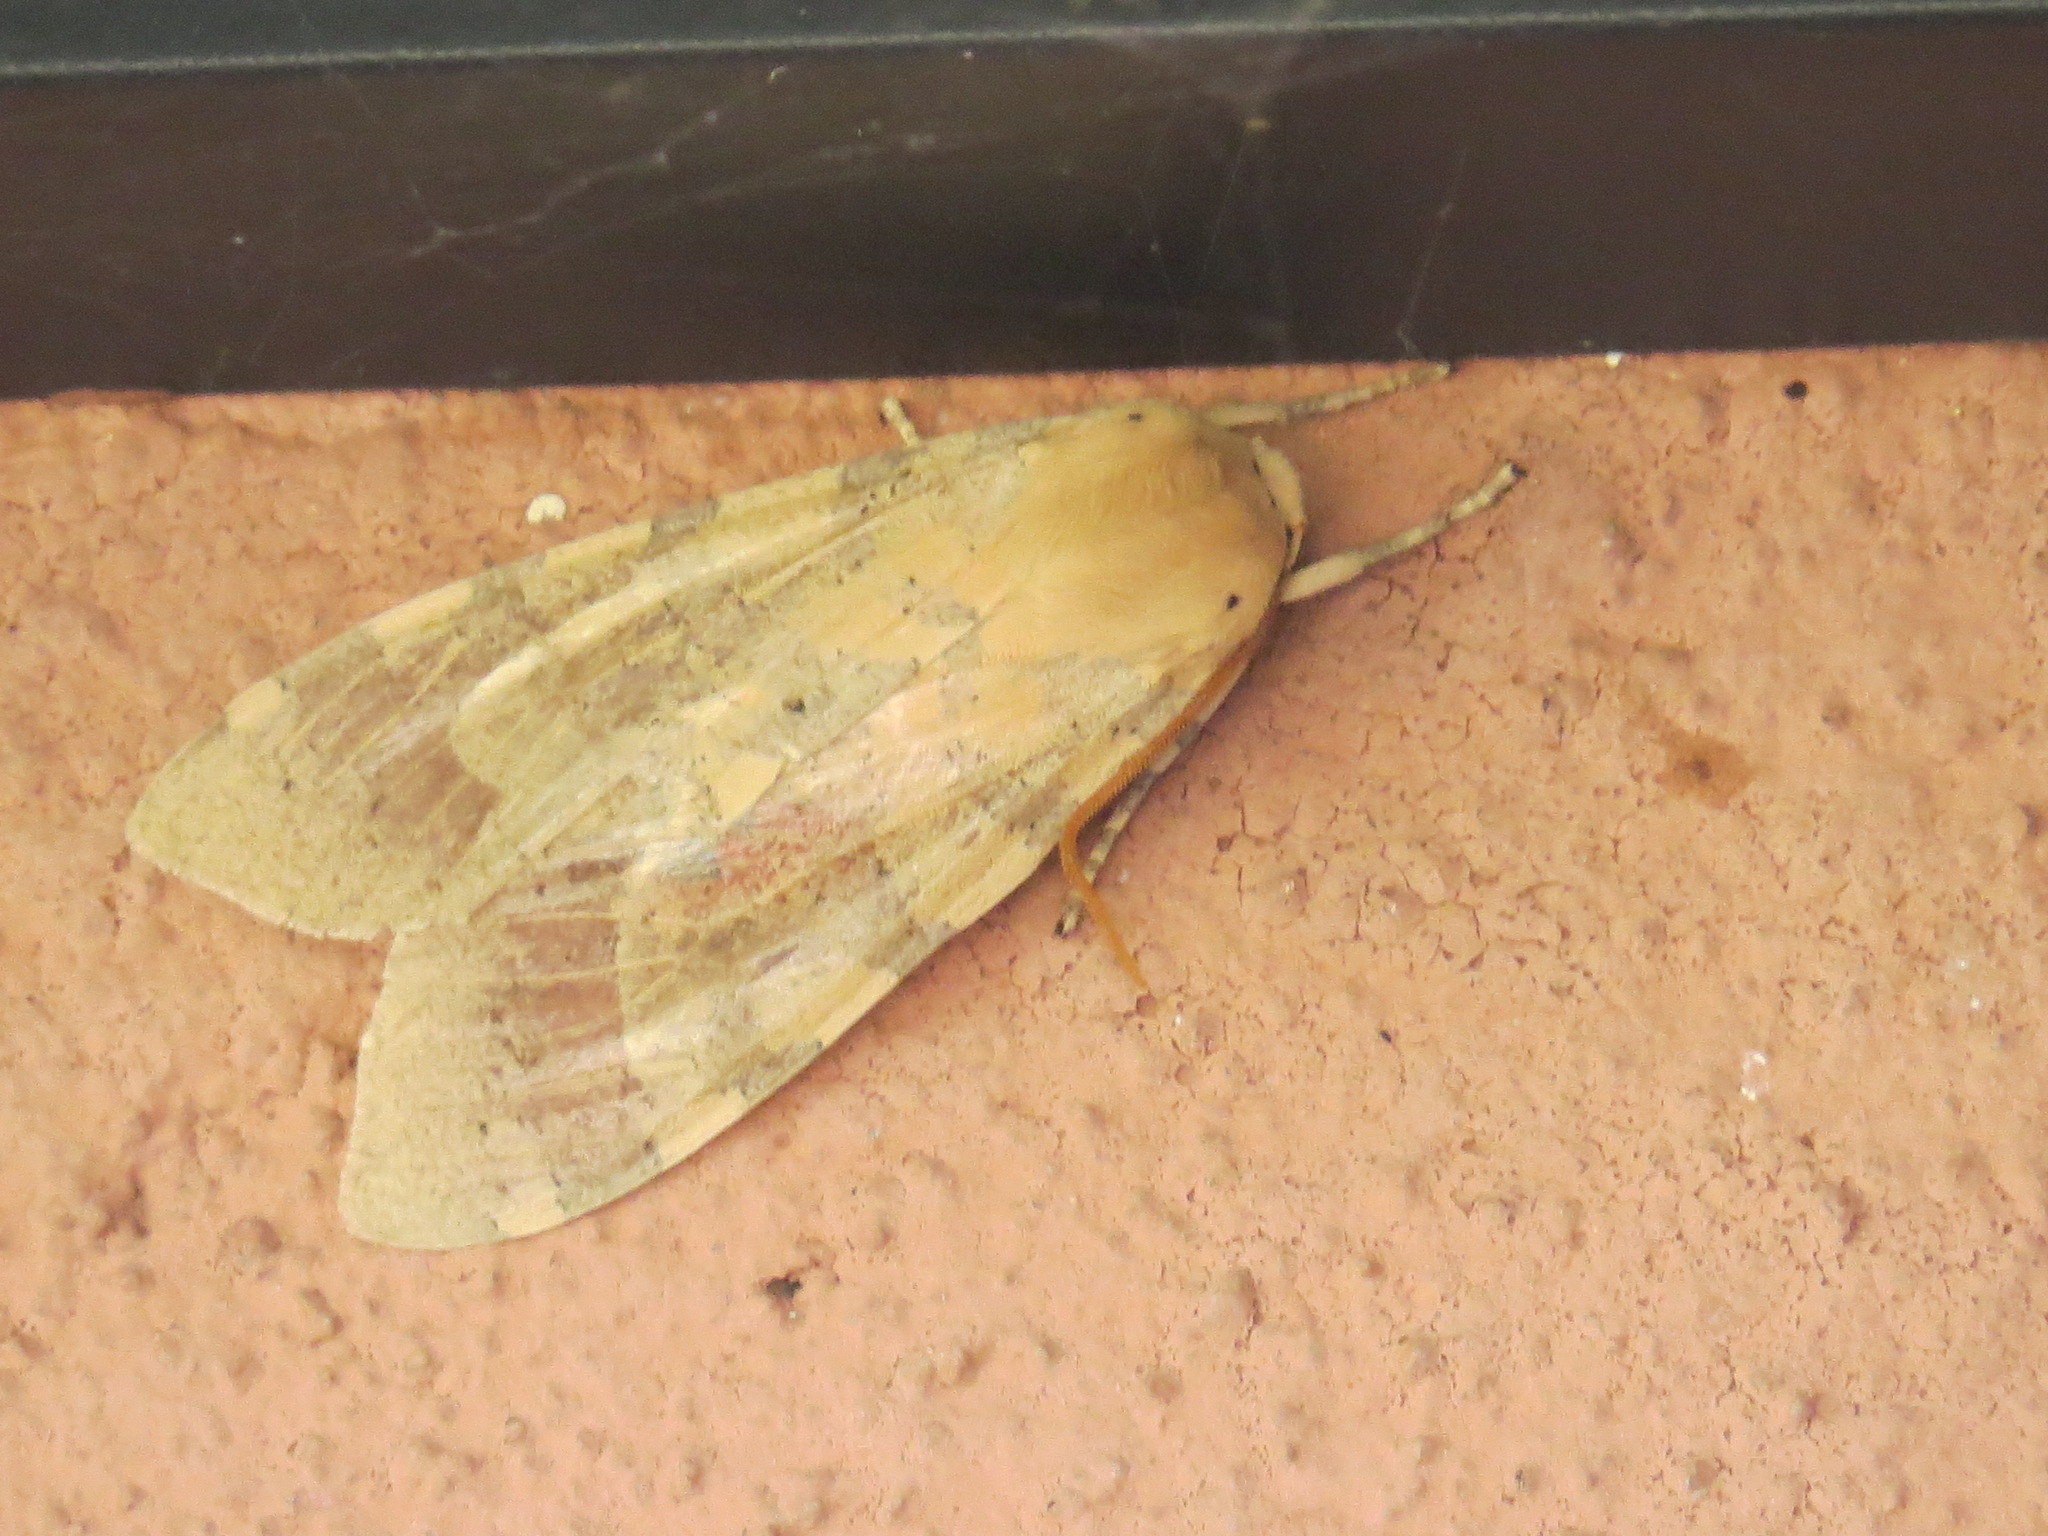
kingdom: Animalia
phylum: Arthropoda
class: Insecta
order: Lepidoptera
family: Erebidae
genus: Hemihyalea
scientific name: Hemihyalea edwardsii
